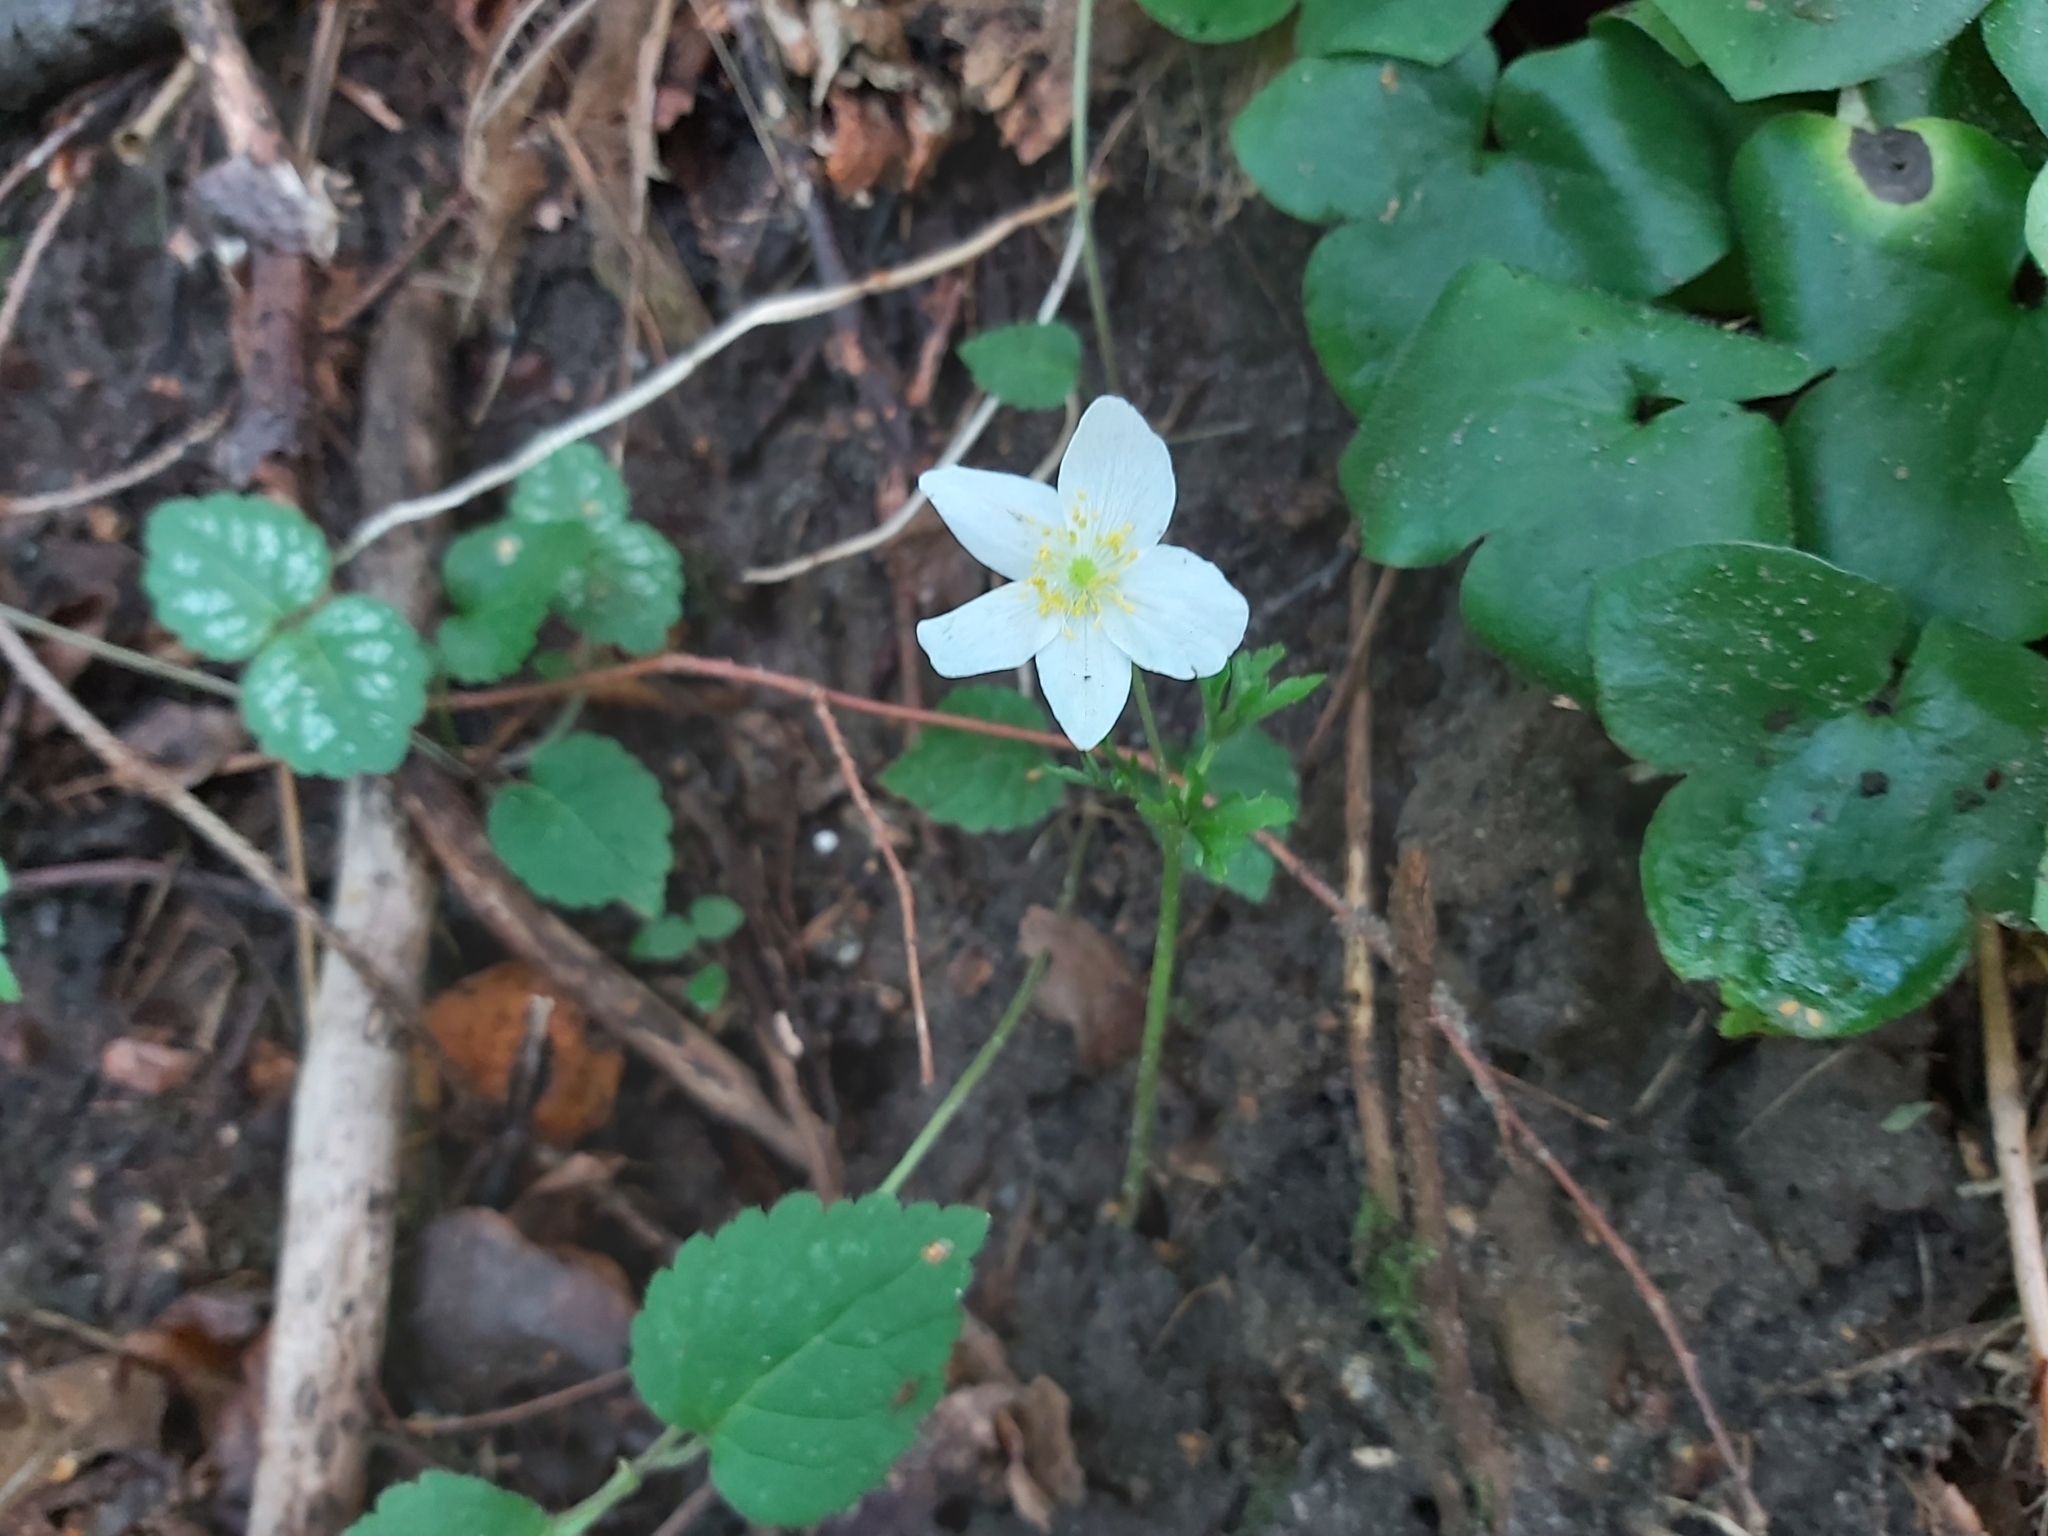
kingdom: Plantae
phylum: Tracheophyta
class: Magnoliopsida
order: Ranunculales
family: Ranunculaceae
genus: Anemone
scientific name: Anemone nemorosa
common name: Wood anemone
